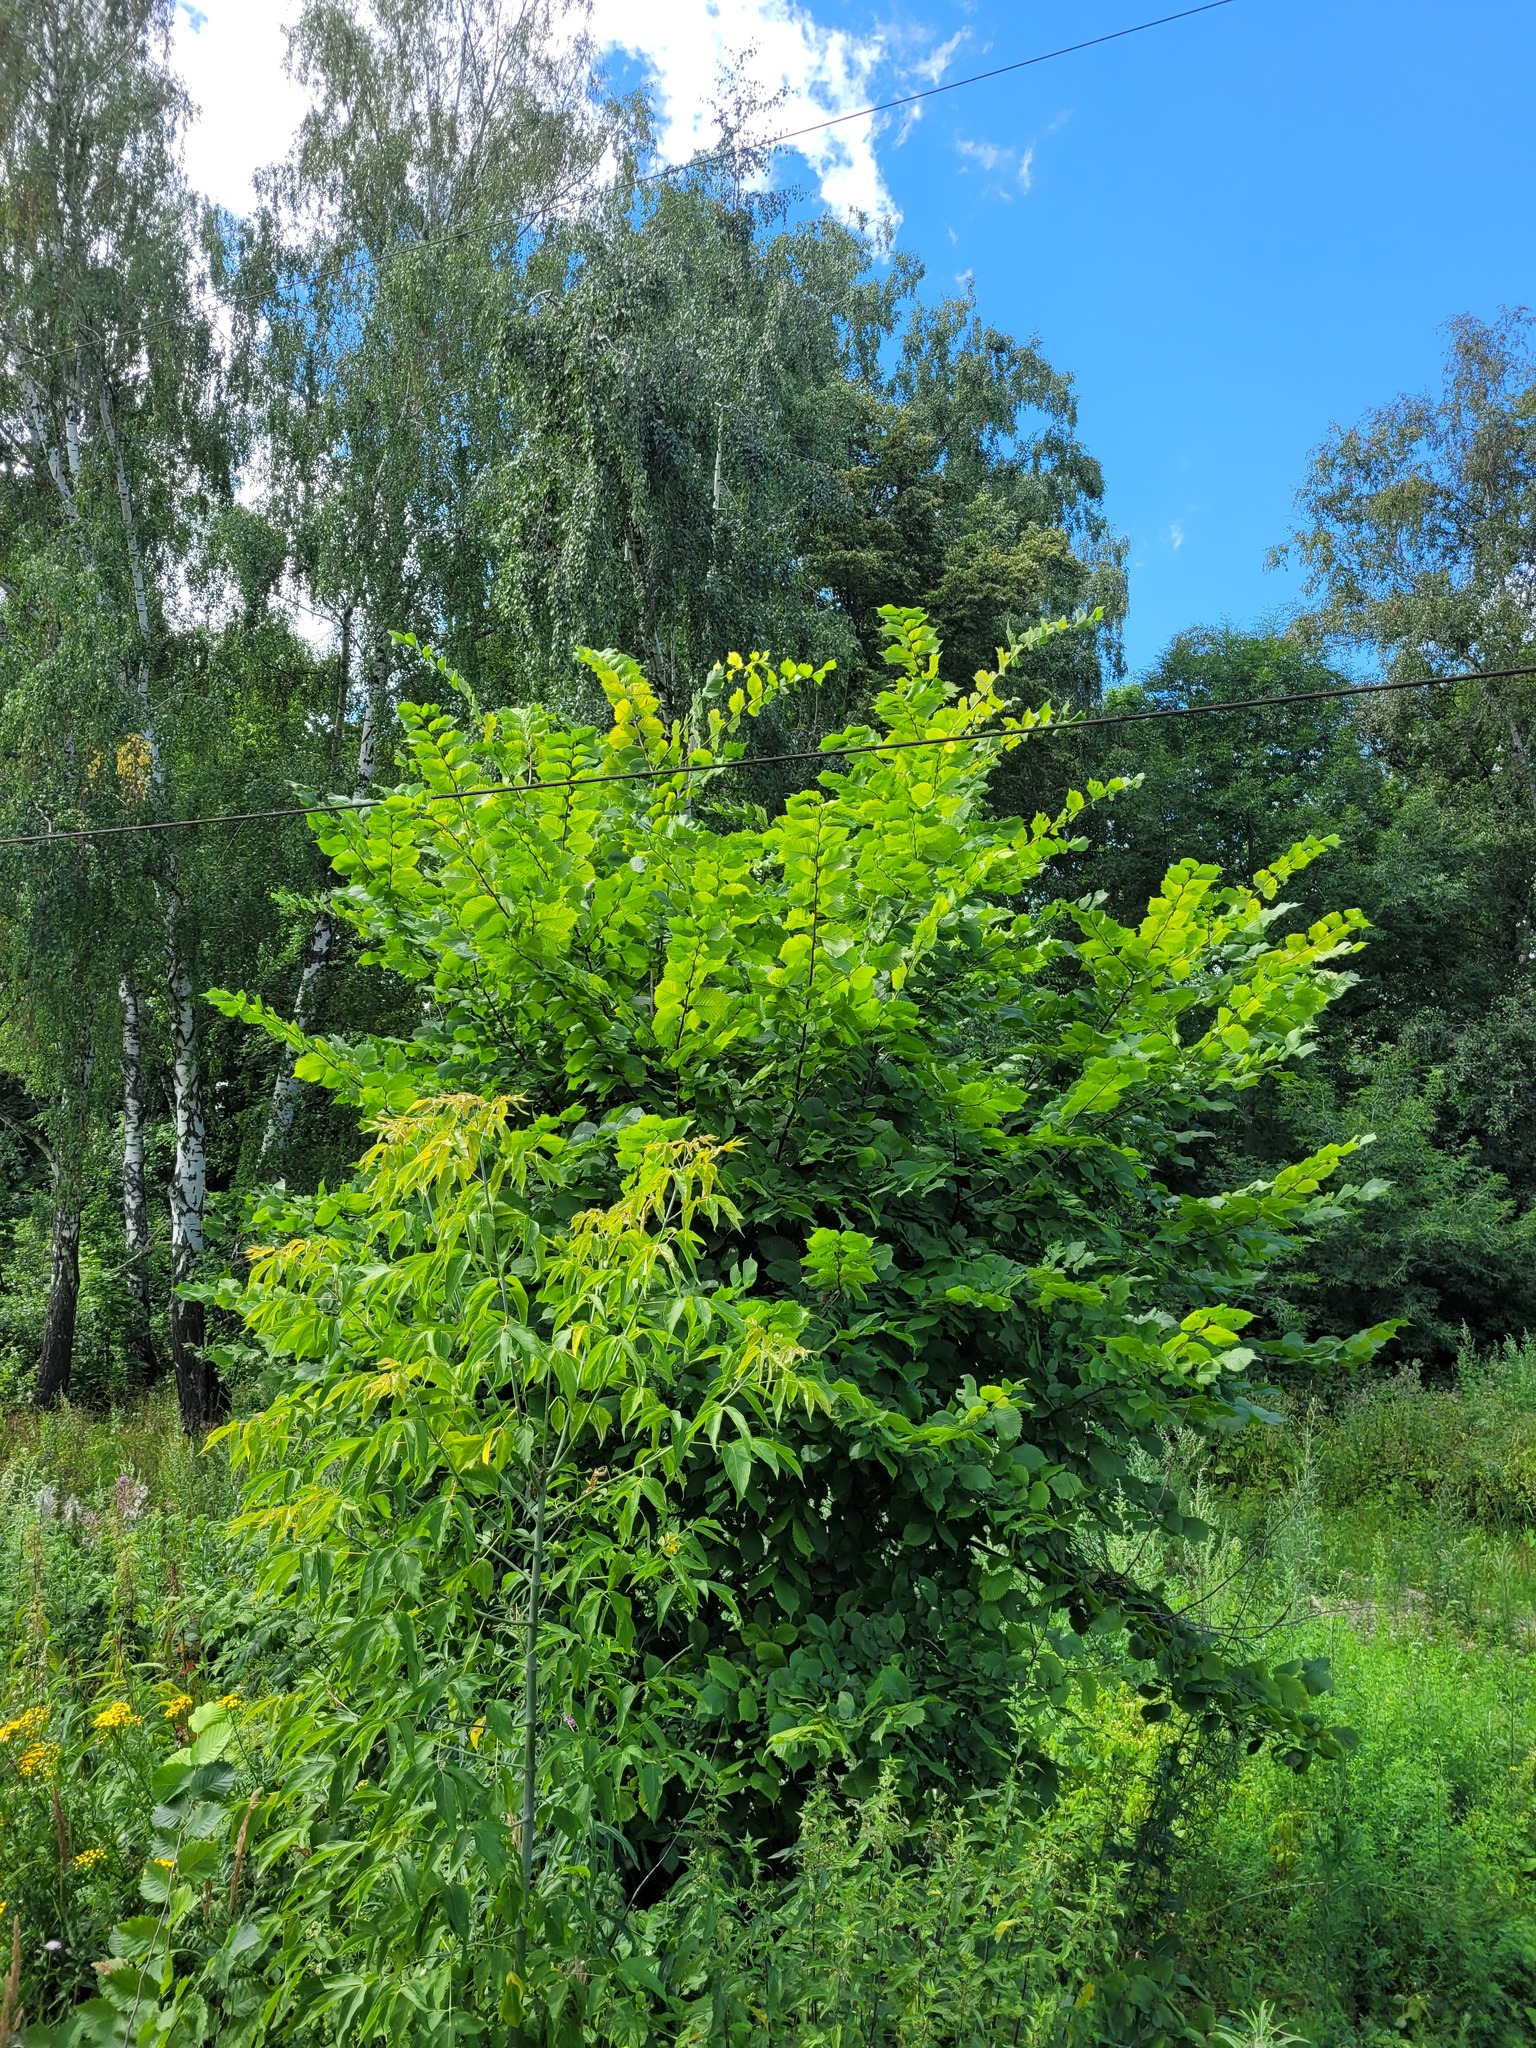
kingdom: Plantae
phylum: Tracheophyta
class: Magnoliopsida
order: Sapindales
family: Sapindaceae
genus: Acer
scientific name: Acer negundo
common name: Ashleaf maple
